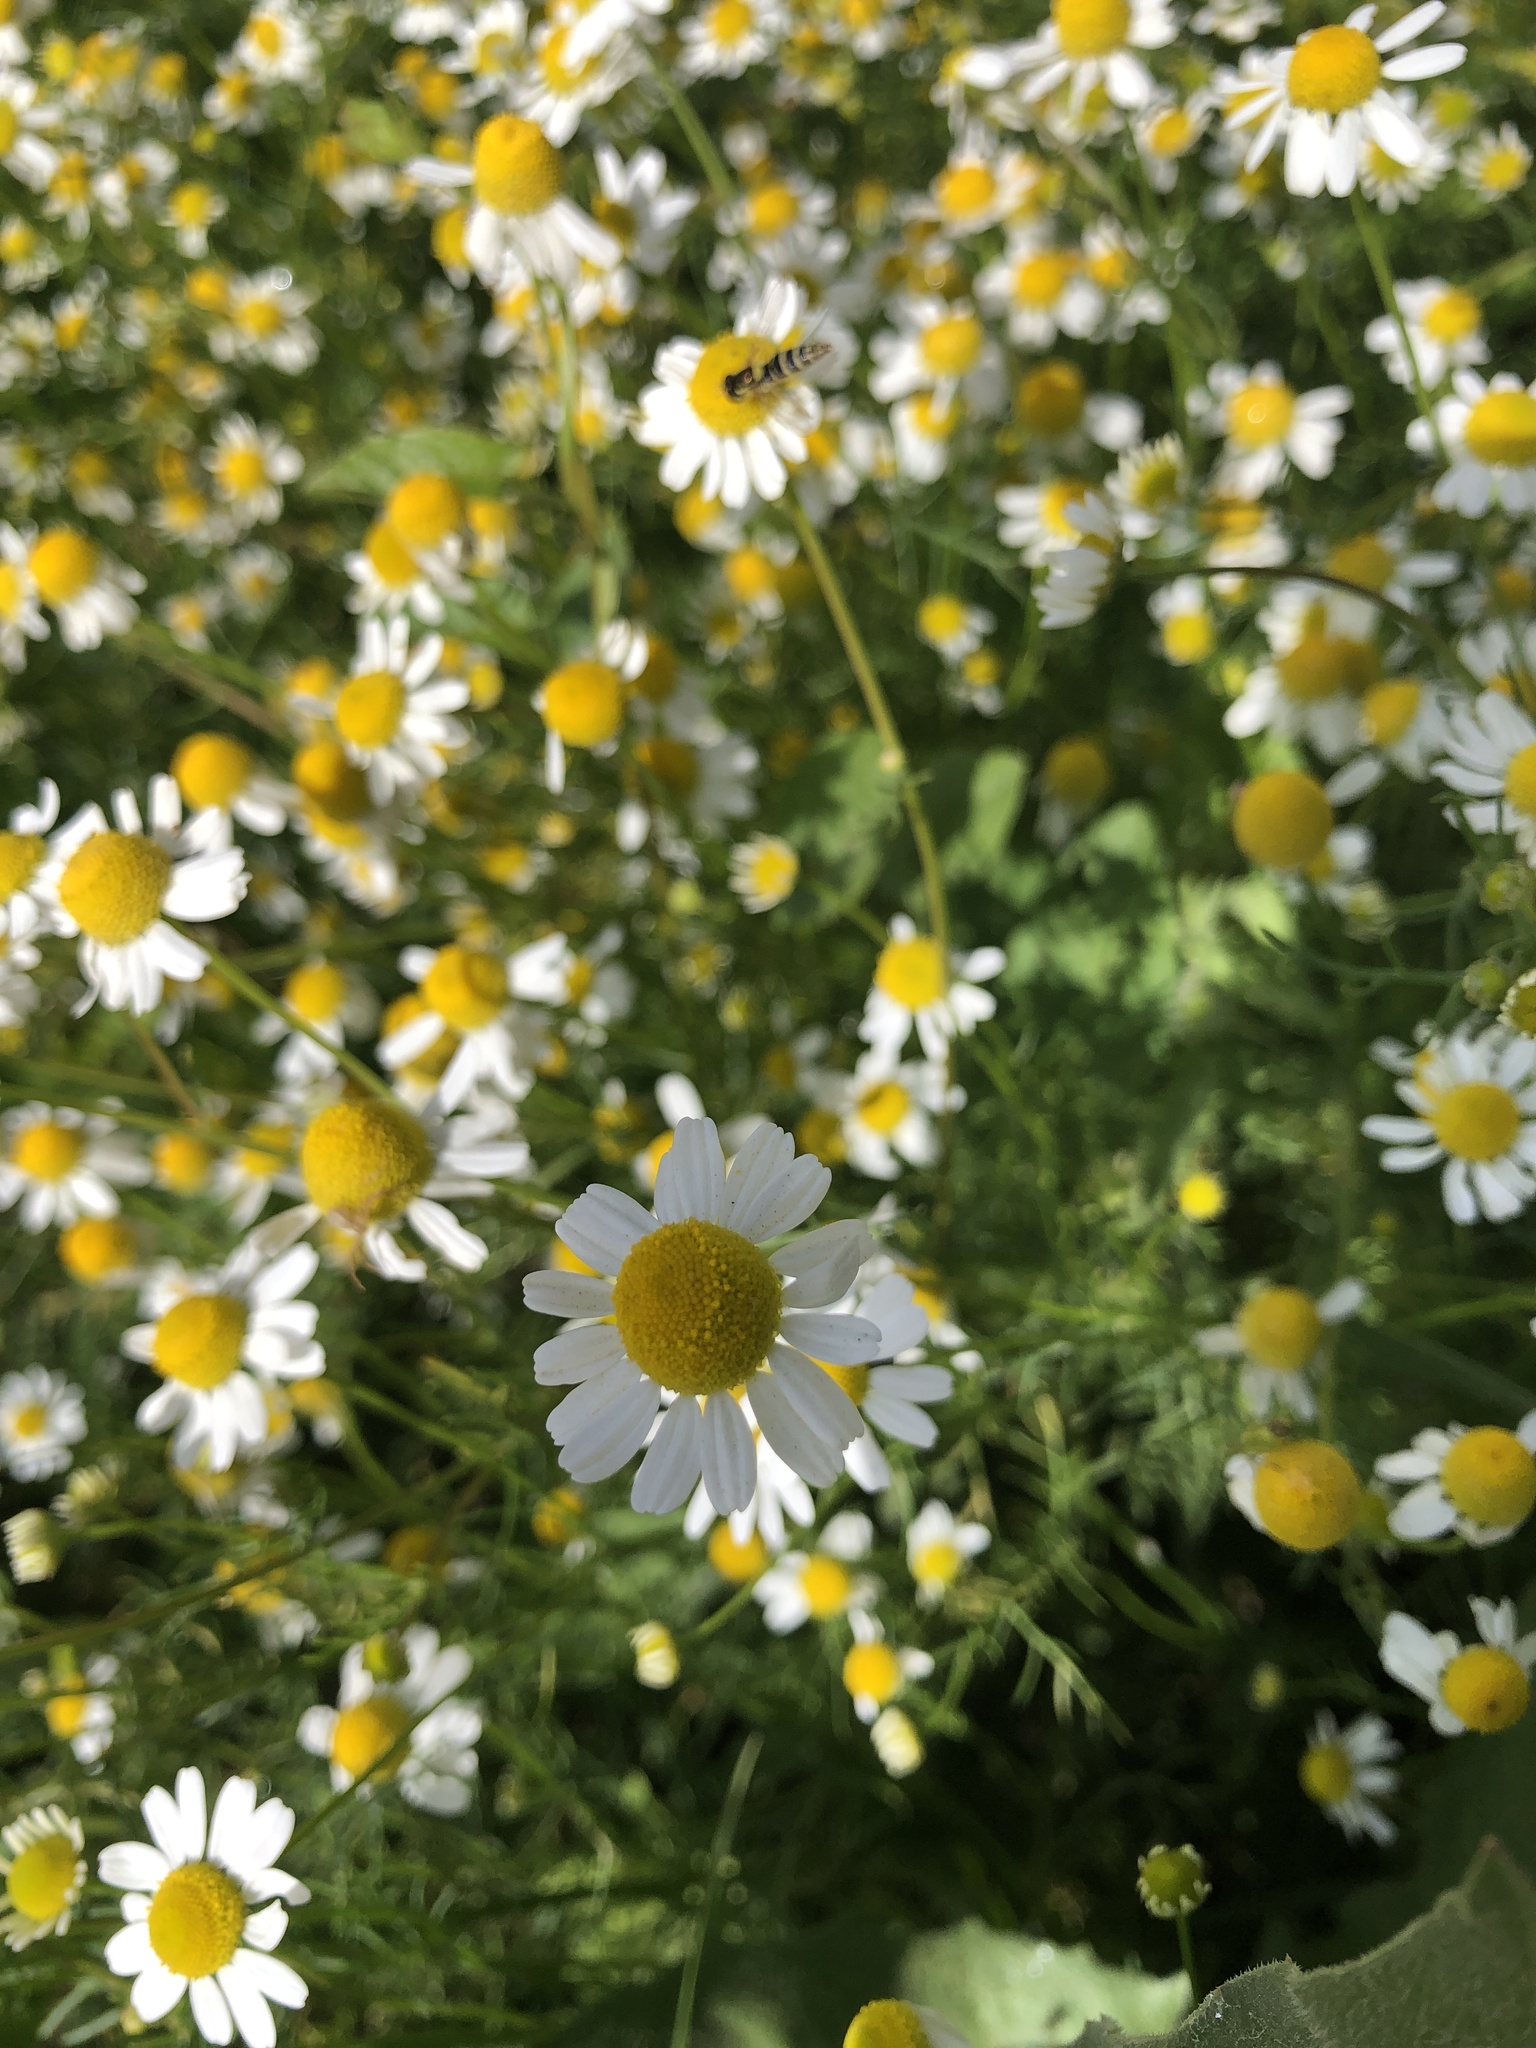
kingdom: Plantae
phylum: Tracheophyta
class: Magnoliopsida
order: Asterales
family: Asteraceae
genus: Matricaria
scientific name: Matricaria chamomilla
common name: Scented mayweed
